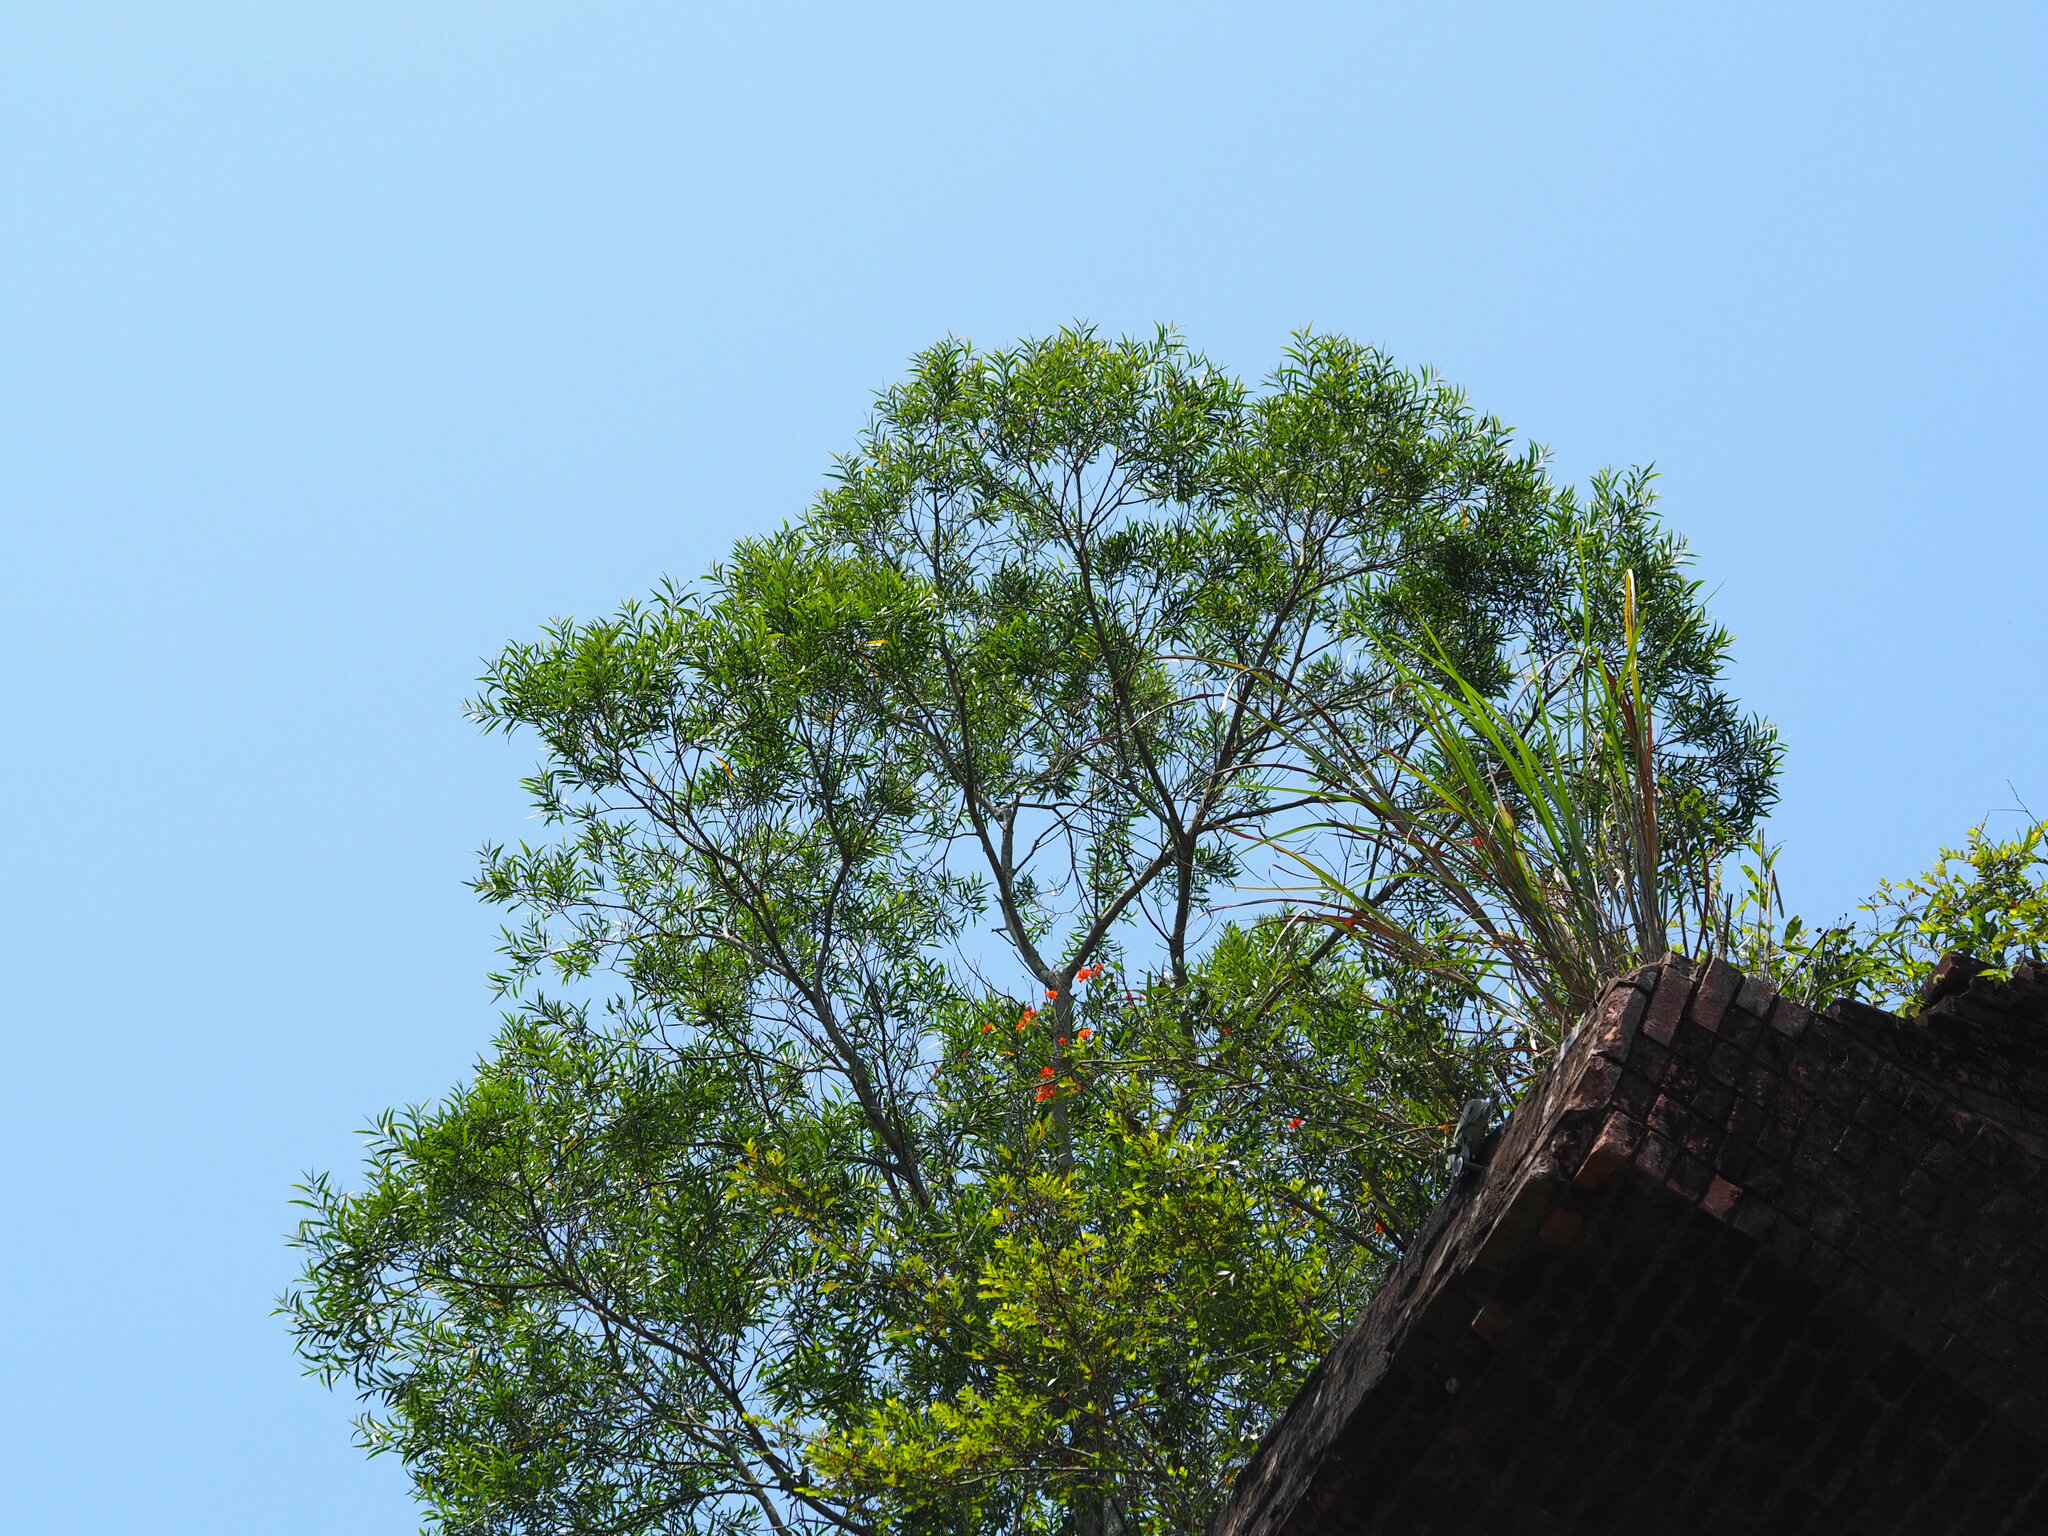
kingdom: Plantae
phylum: Tracheophyta
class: Magnoliopsida
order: Fabales
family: Fabaceae
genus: Acacia
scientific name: Acacia confusa
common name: Formosan koa
